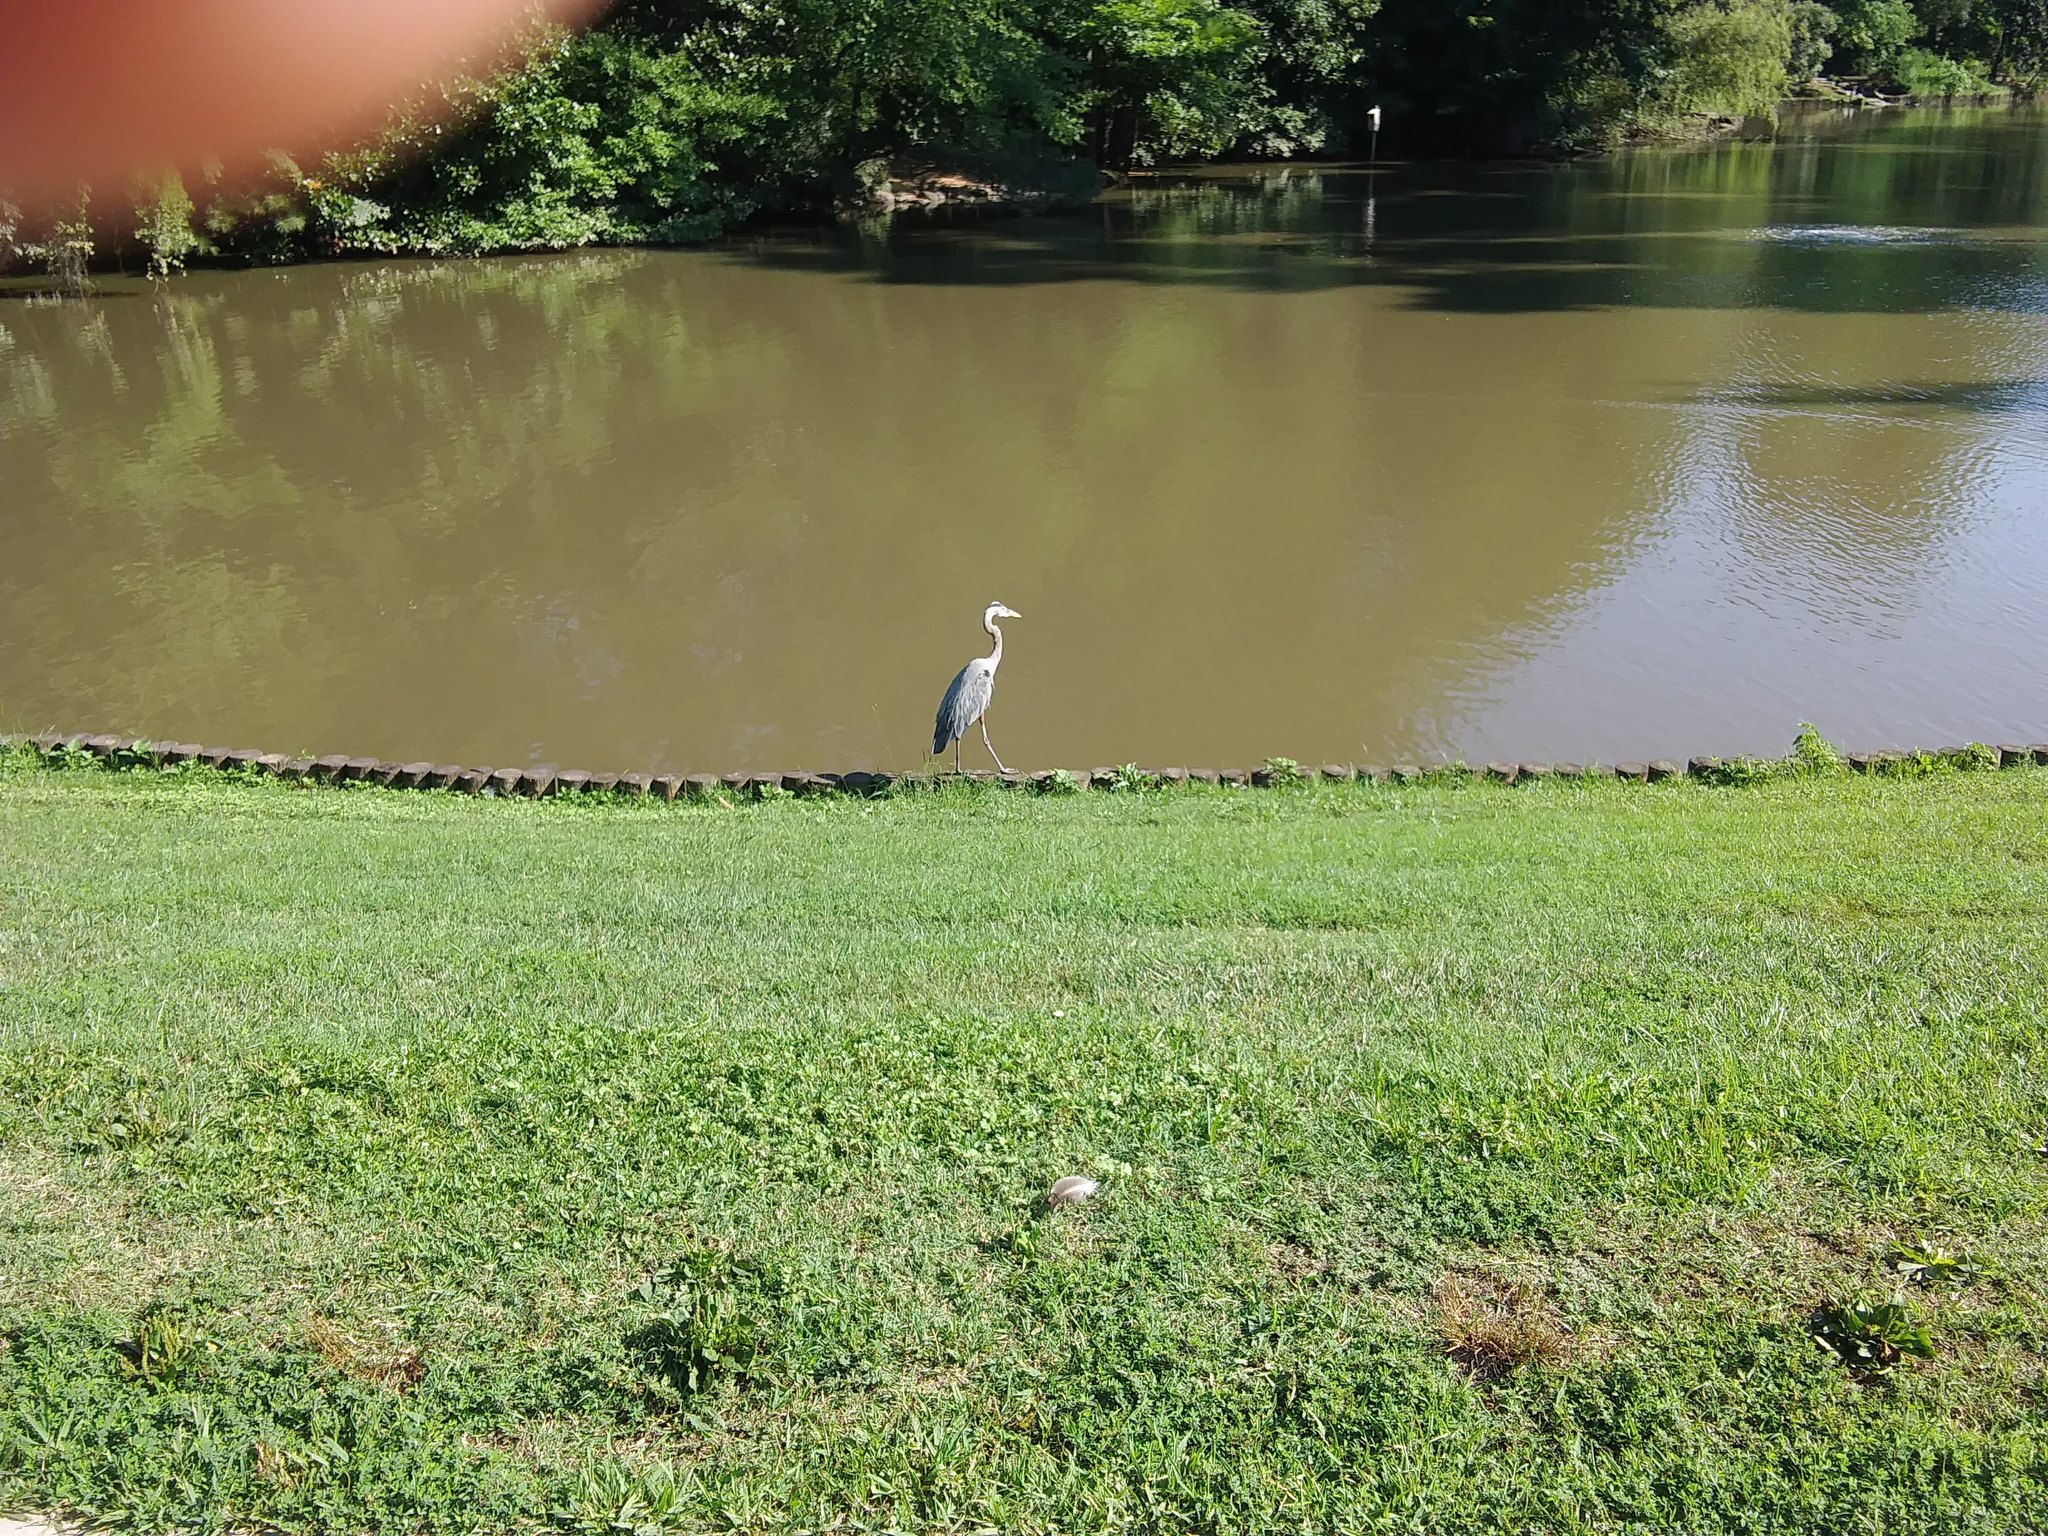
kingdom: Animalia
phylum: Chordata
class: Aves
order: Pelecaniformes
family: Ardeidae
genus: Ardea
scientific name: Ardea herodias
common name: Great blue heron
